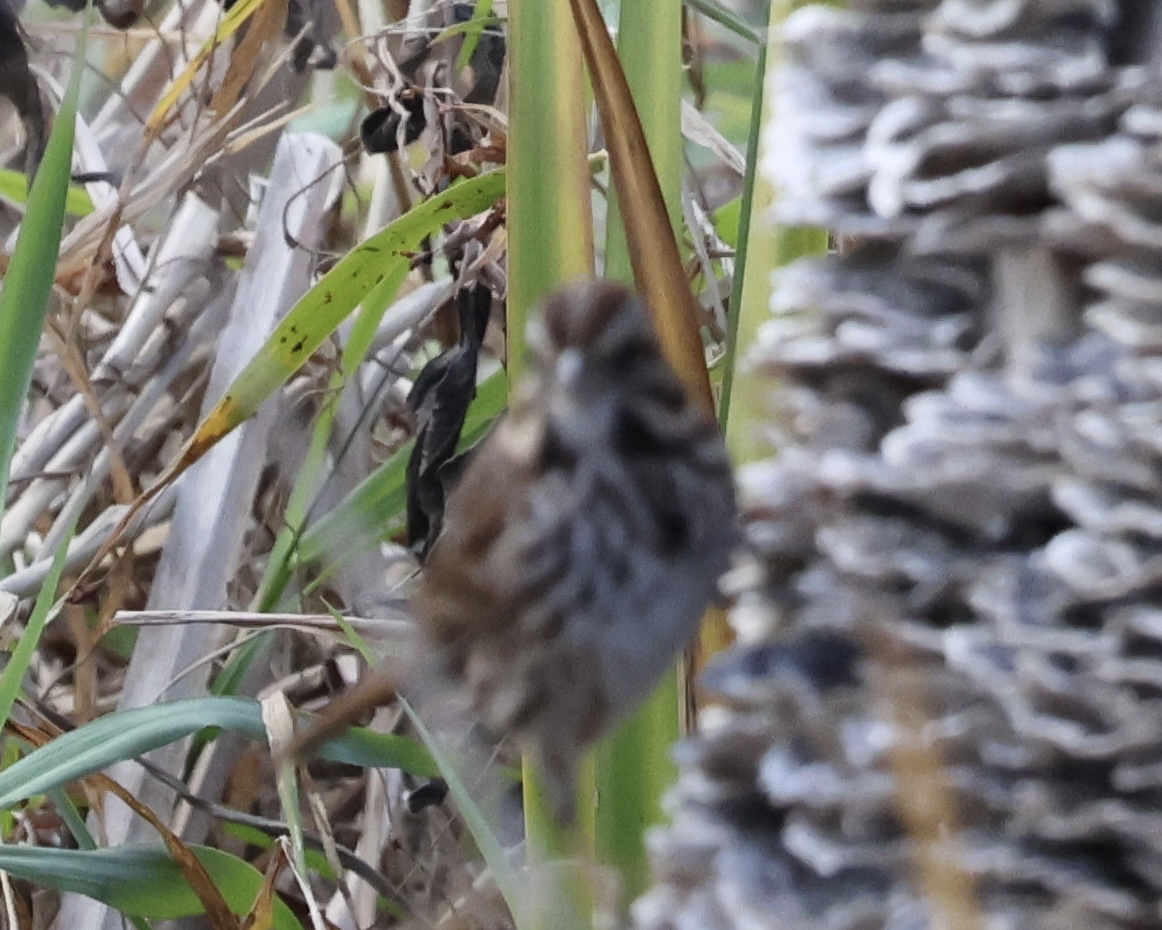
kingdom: Animalia
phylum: Chordata
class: Aves
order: Passeriformes
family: Passerellidae
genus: Zonotrichia
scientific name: Zonotrichia albicollis
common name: White-throated sparrow
